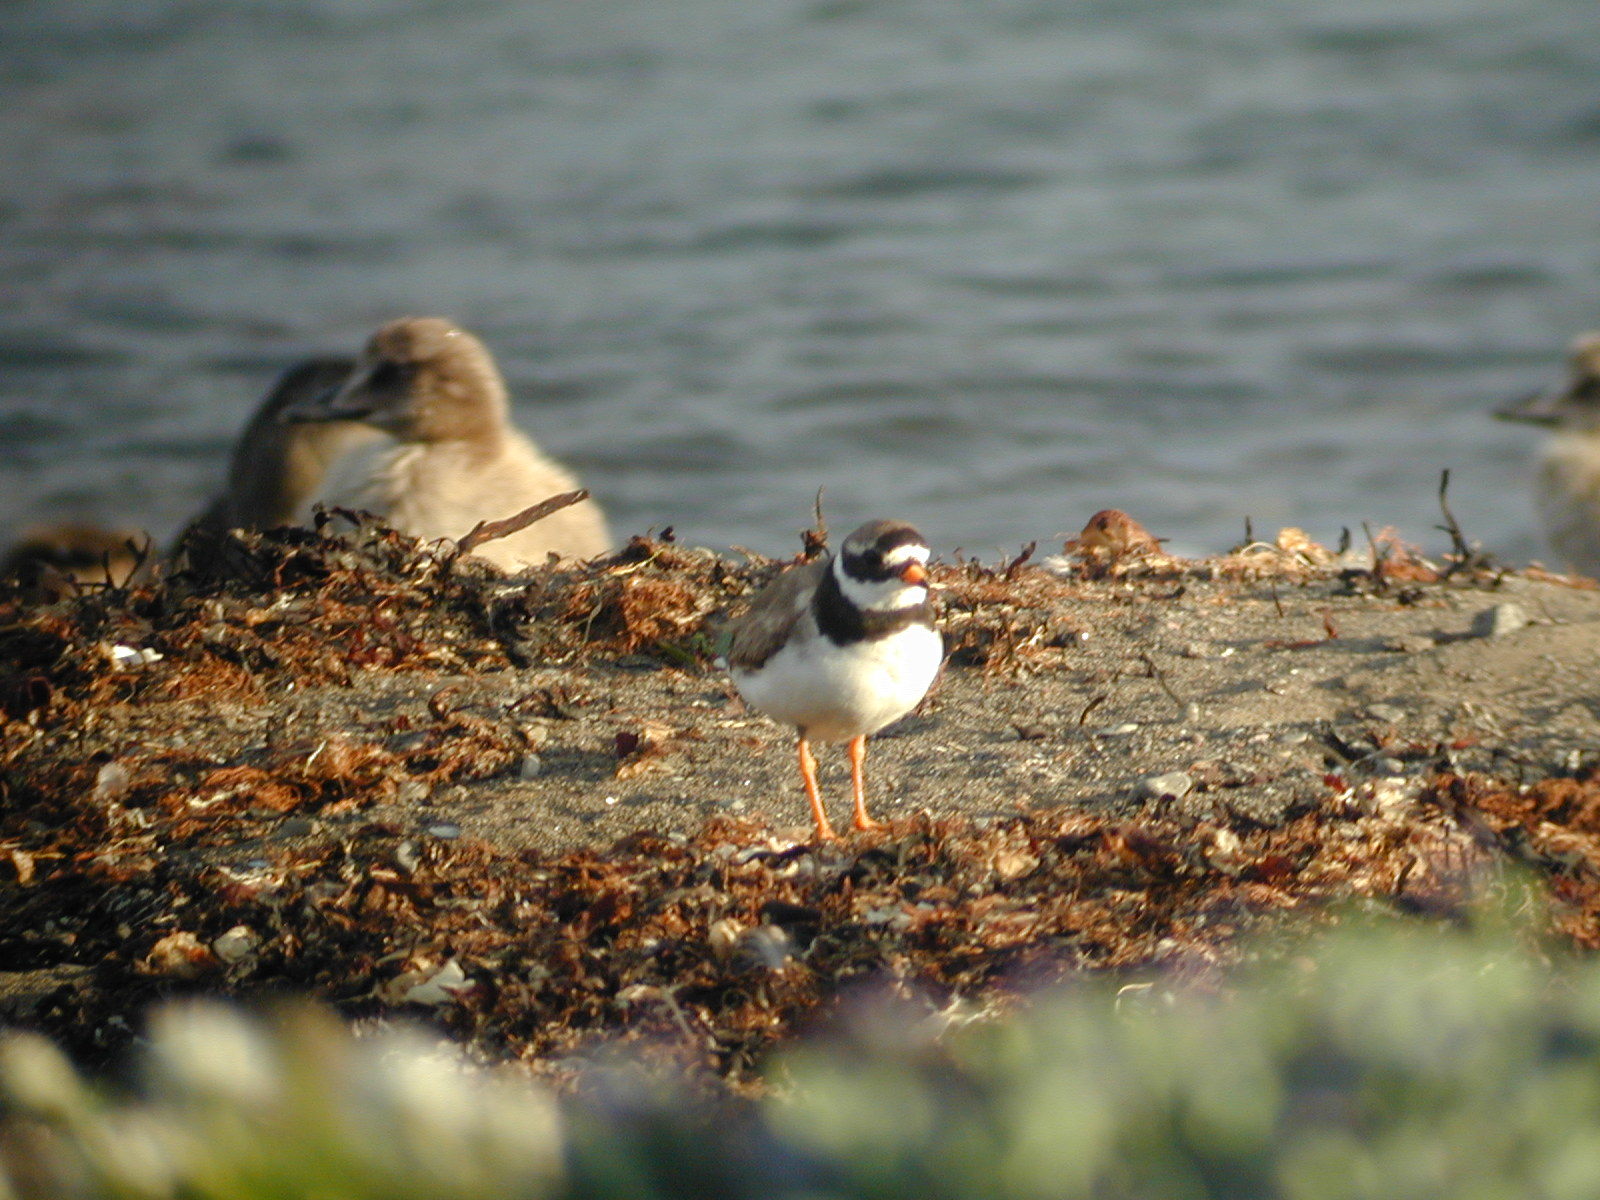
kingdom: Animalia
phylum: Chordata
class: Aves
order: Charadriiformes
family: Charadriidae
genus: Charadrius
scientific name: Charadrius hiaticula
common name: Common ringed plover
